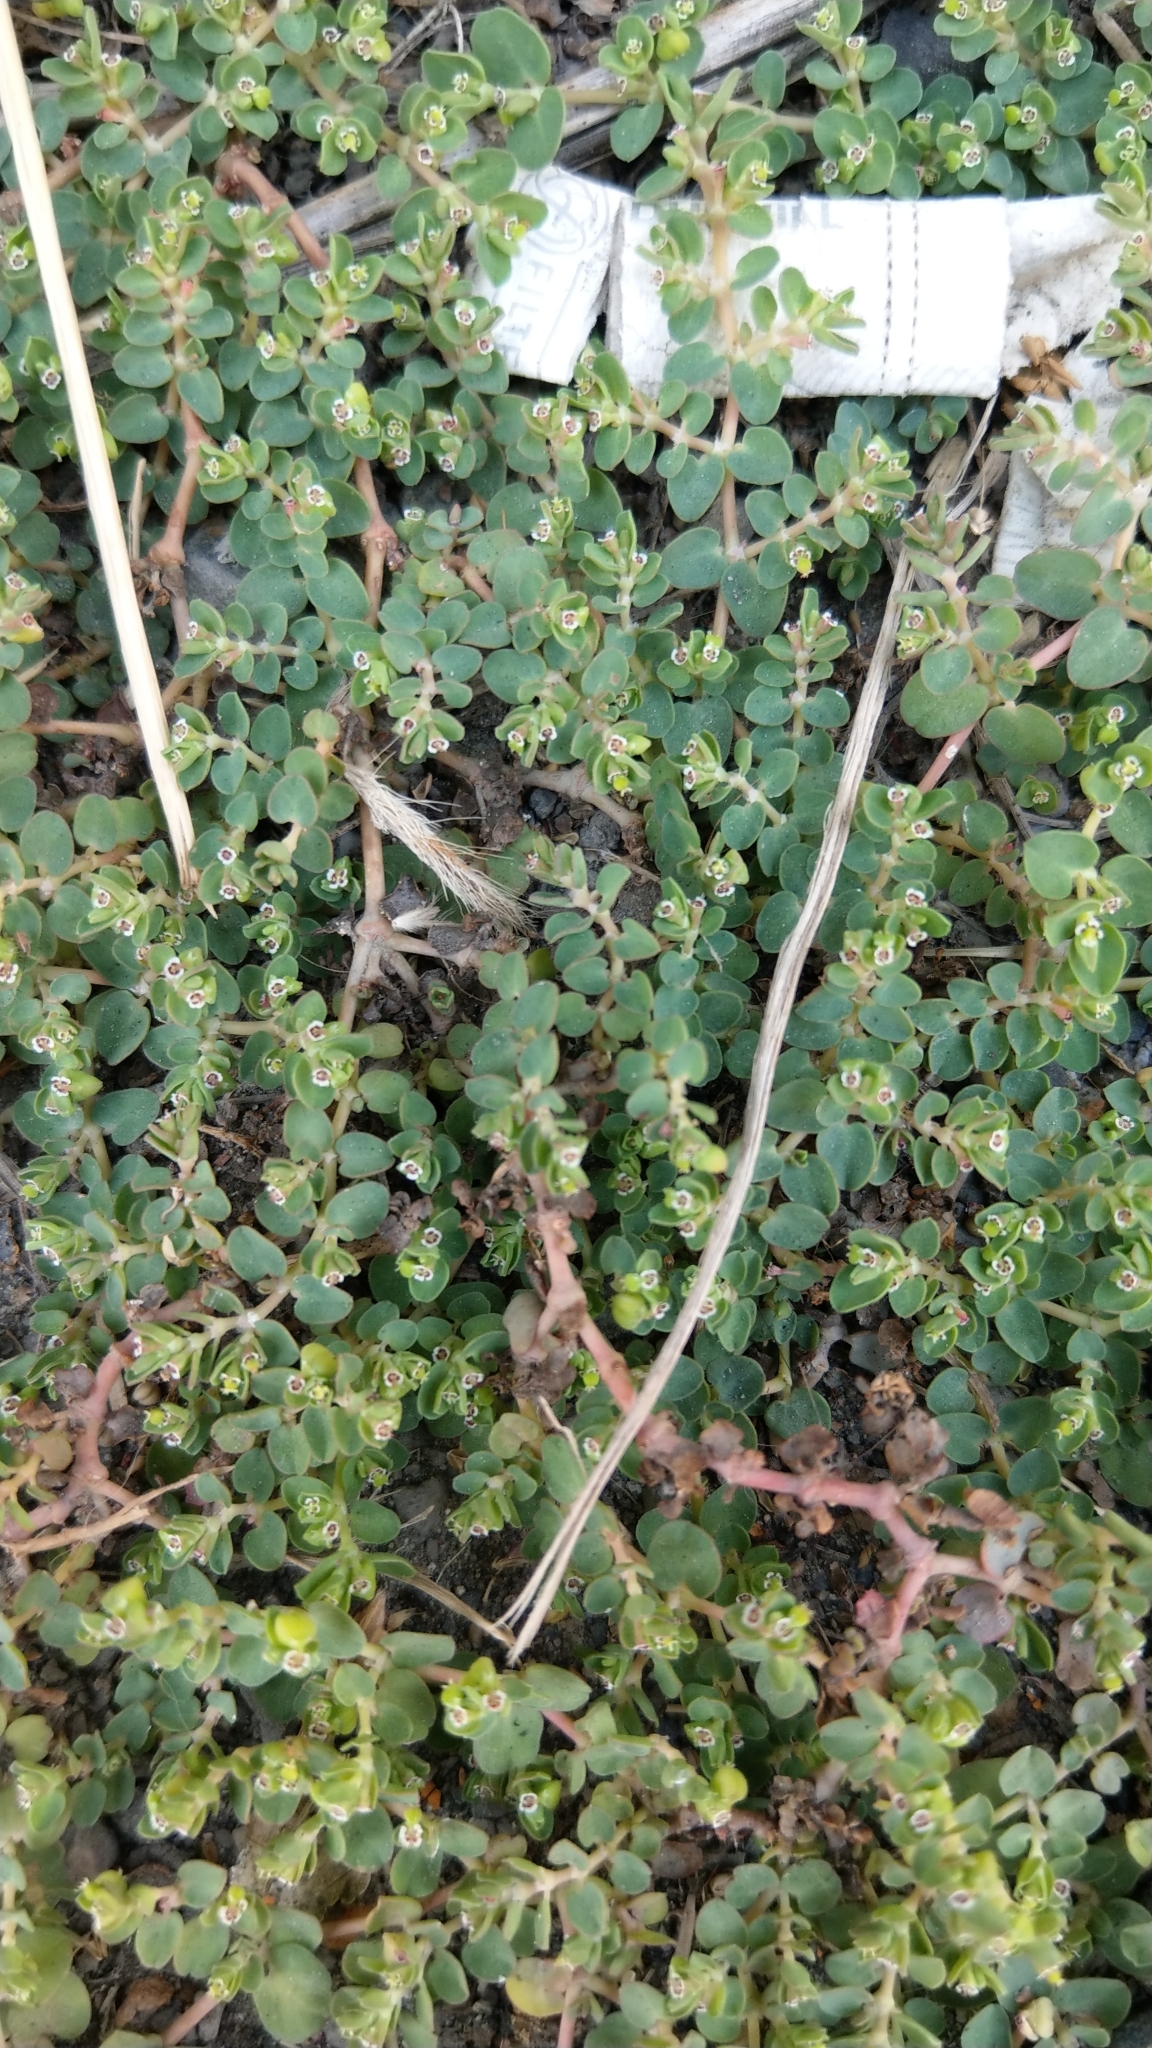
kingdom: Plantae
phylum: Tracheophyta
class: Magnoliopsida
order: Malpighiales
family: Euphorbiaceae
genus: Euphorbia
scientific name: Euphorbia serpens
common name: Matted sandmat
